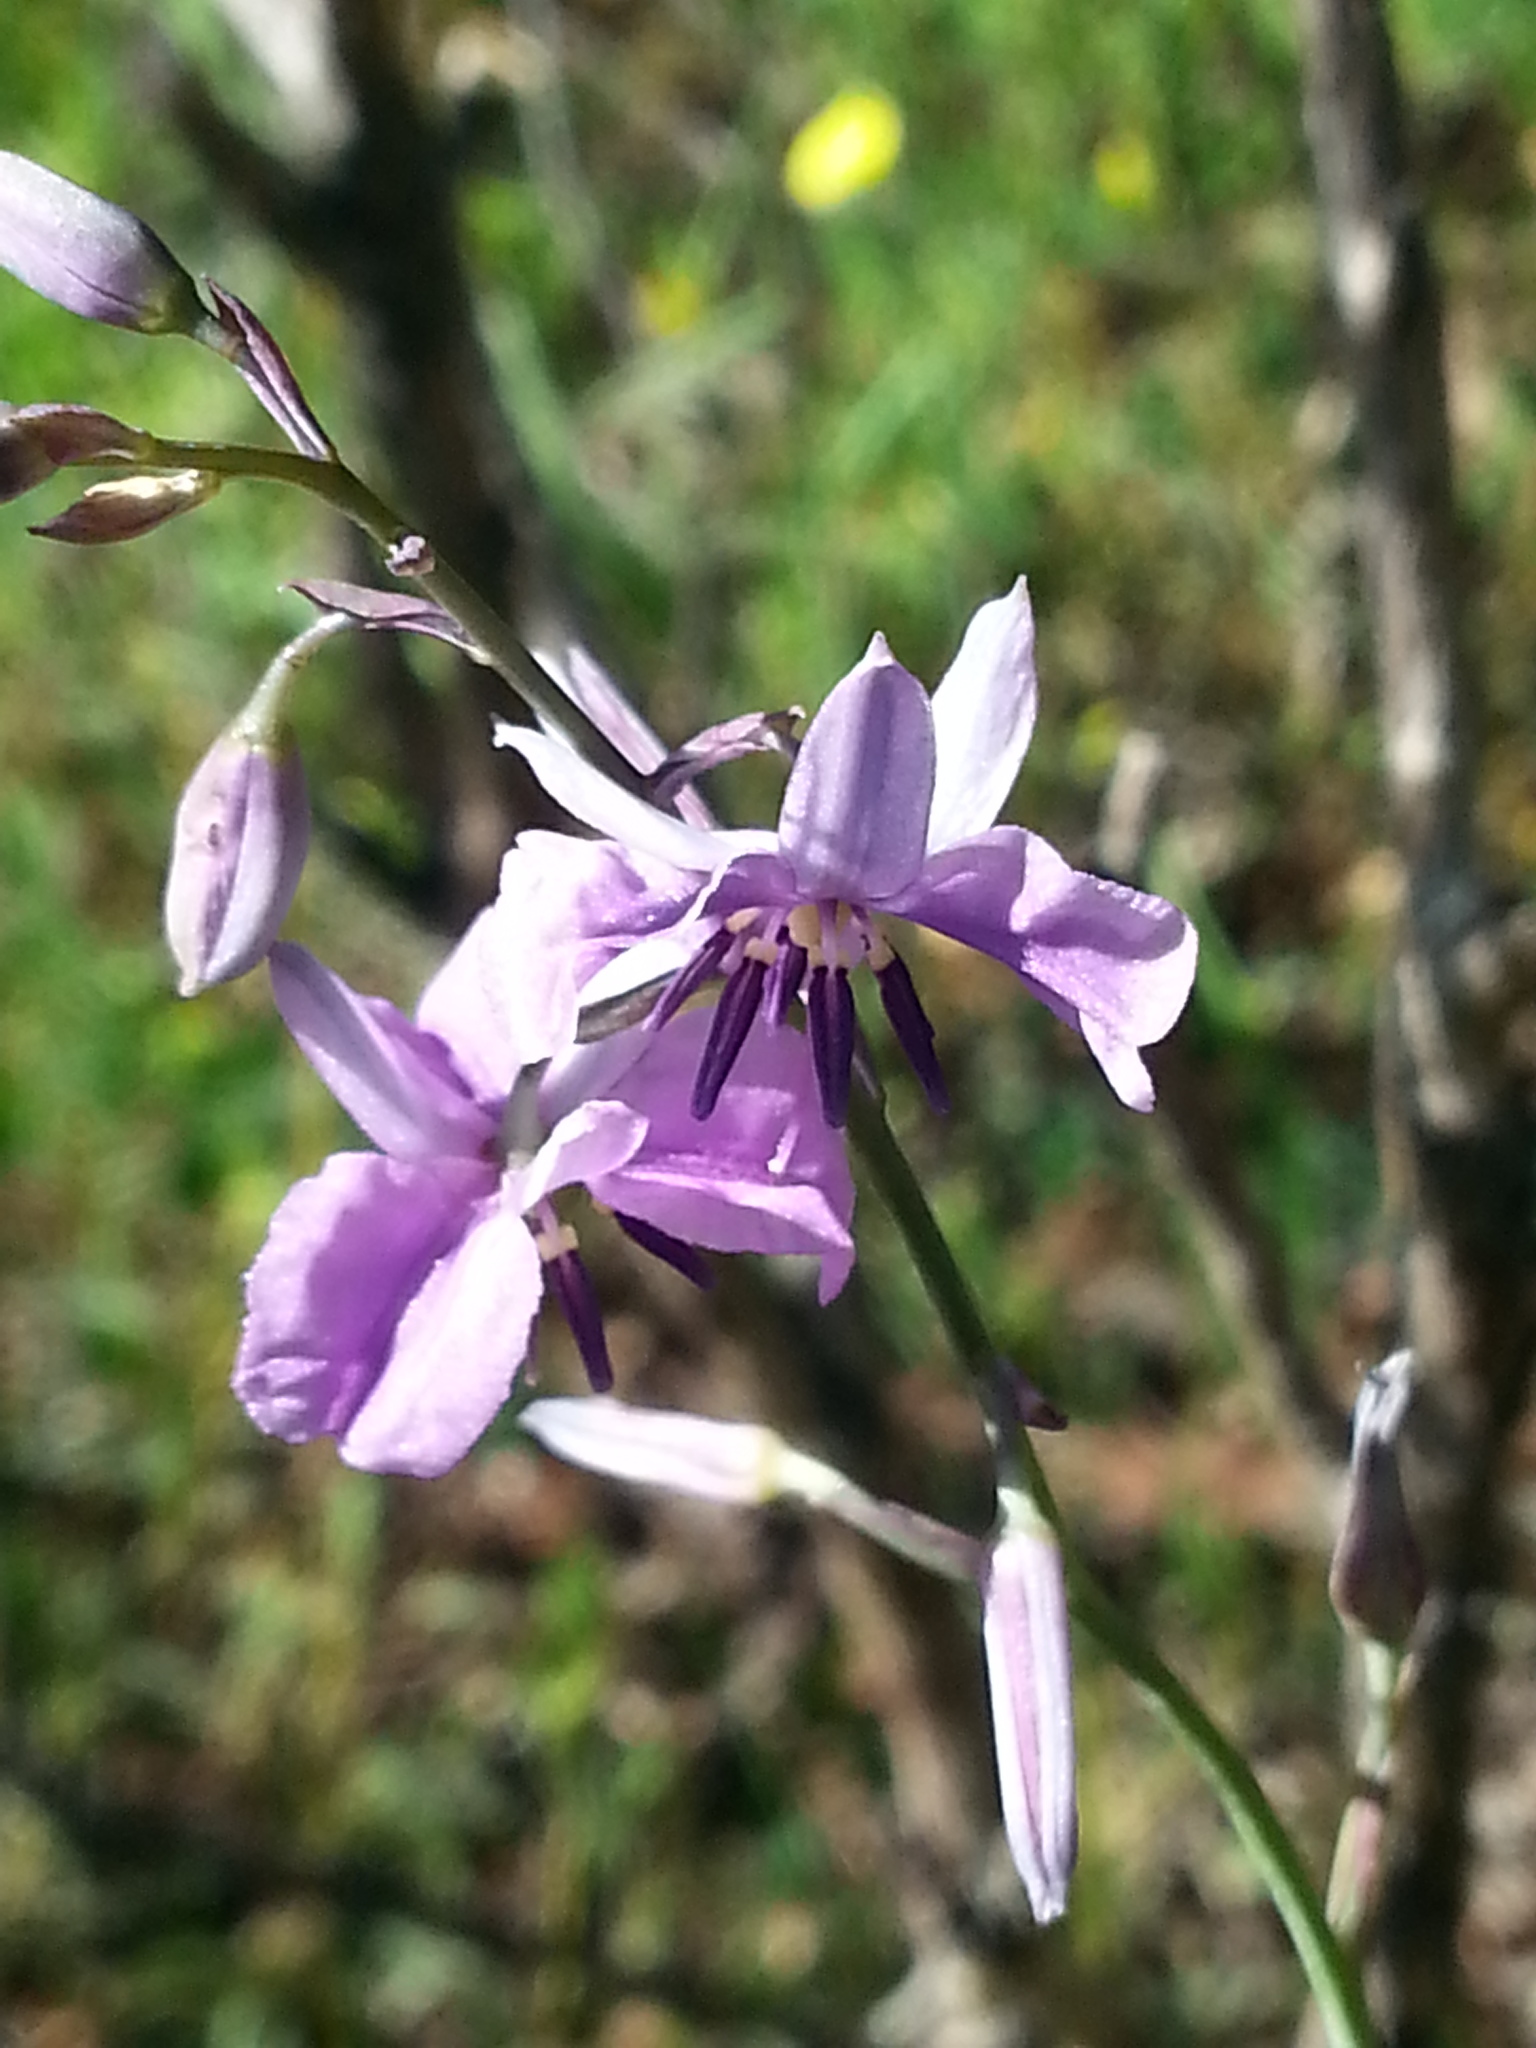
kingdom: Plantae
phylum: Tracheophyta
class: Liliopsida
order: Asparagales
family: Asparagaceae
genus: Arthropodium
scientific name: Arthropodium strictum
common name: Chocolate-lily
